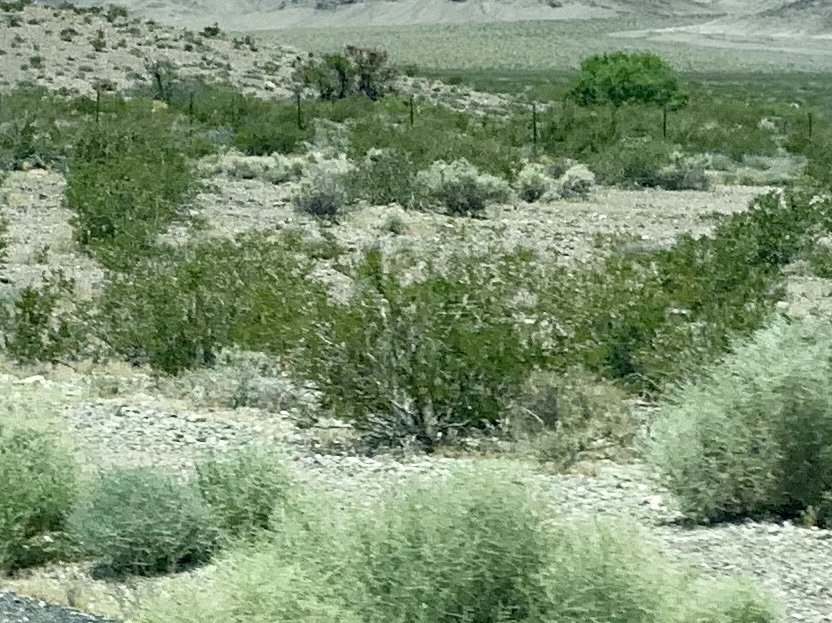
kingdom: Plantae
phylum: Tracheophyta
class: Magnoliopsida
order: Zygophyllales
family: Zygophyllaceae
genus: Larrea
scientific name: Larrea tridentata
